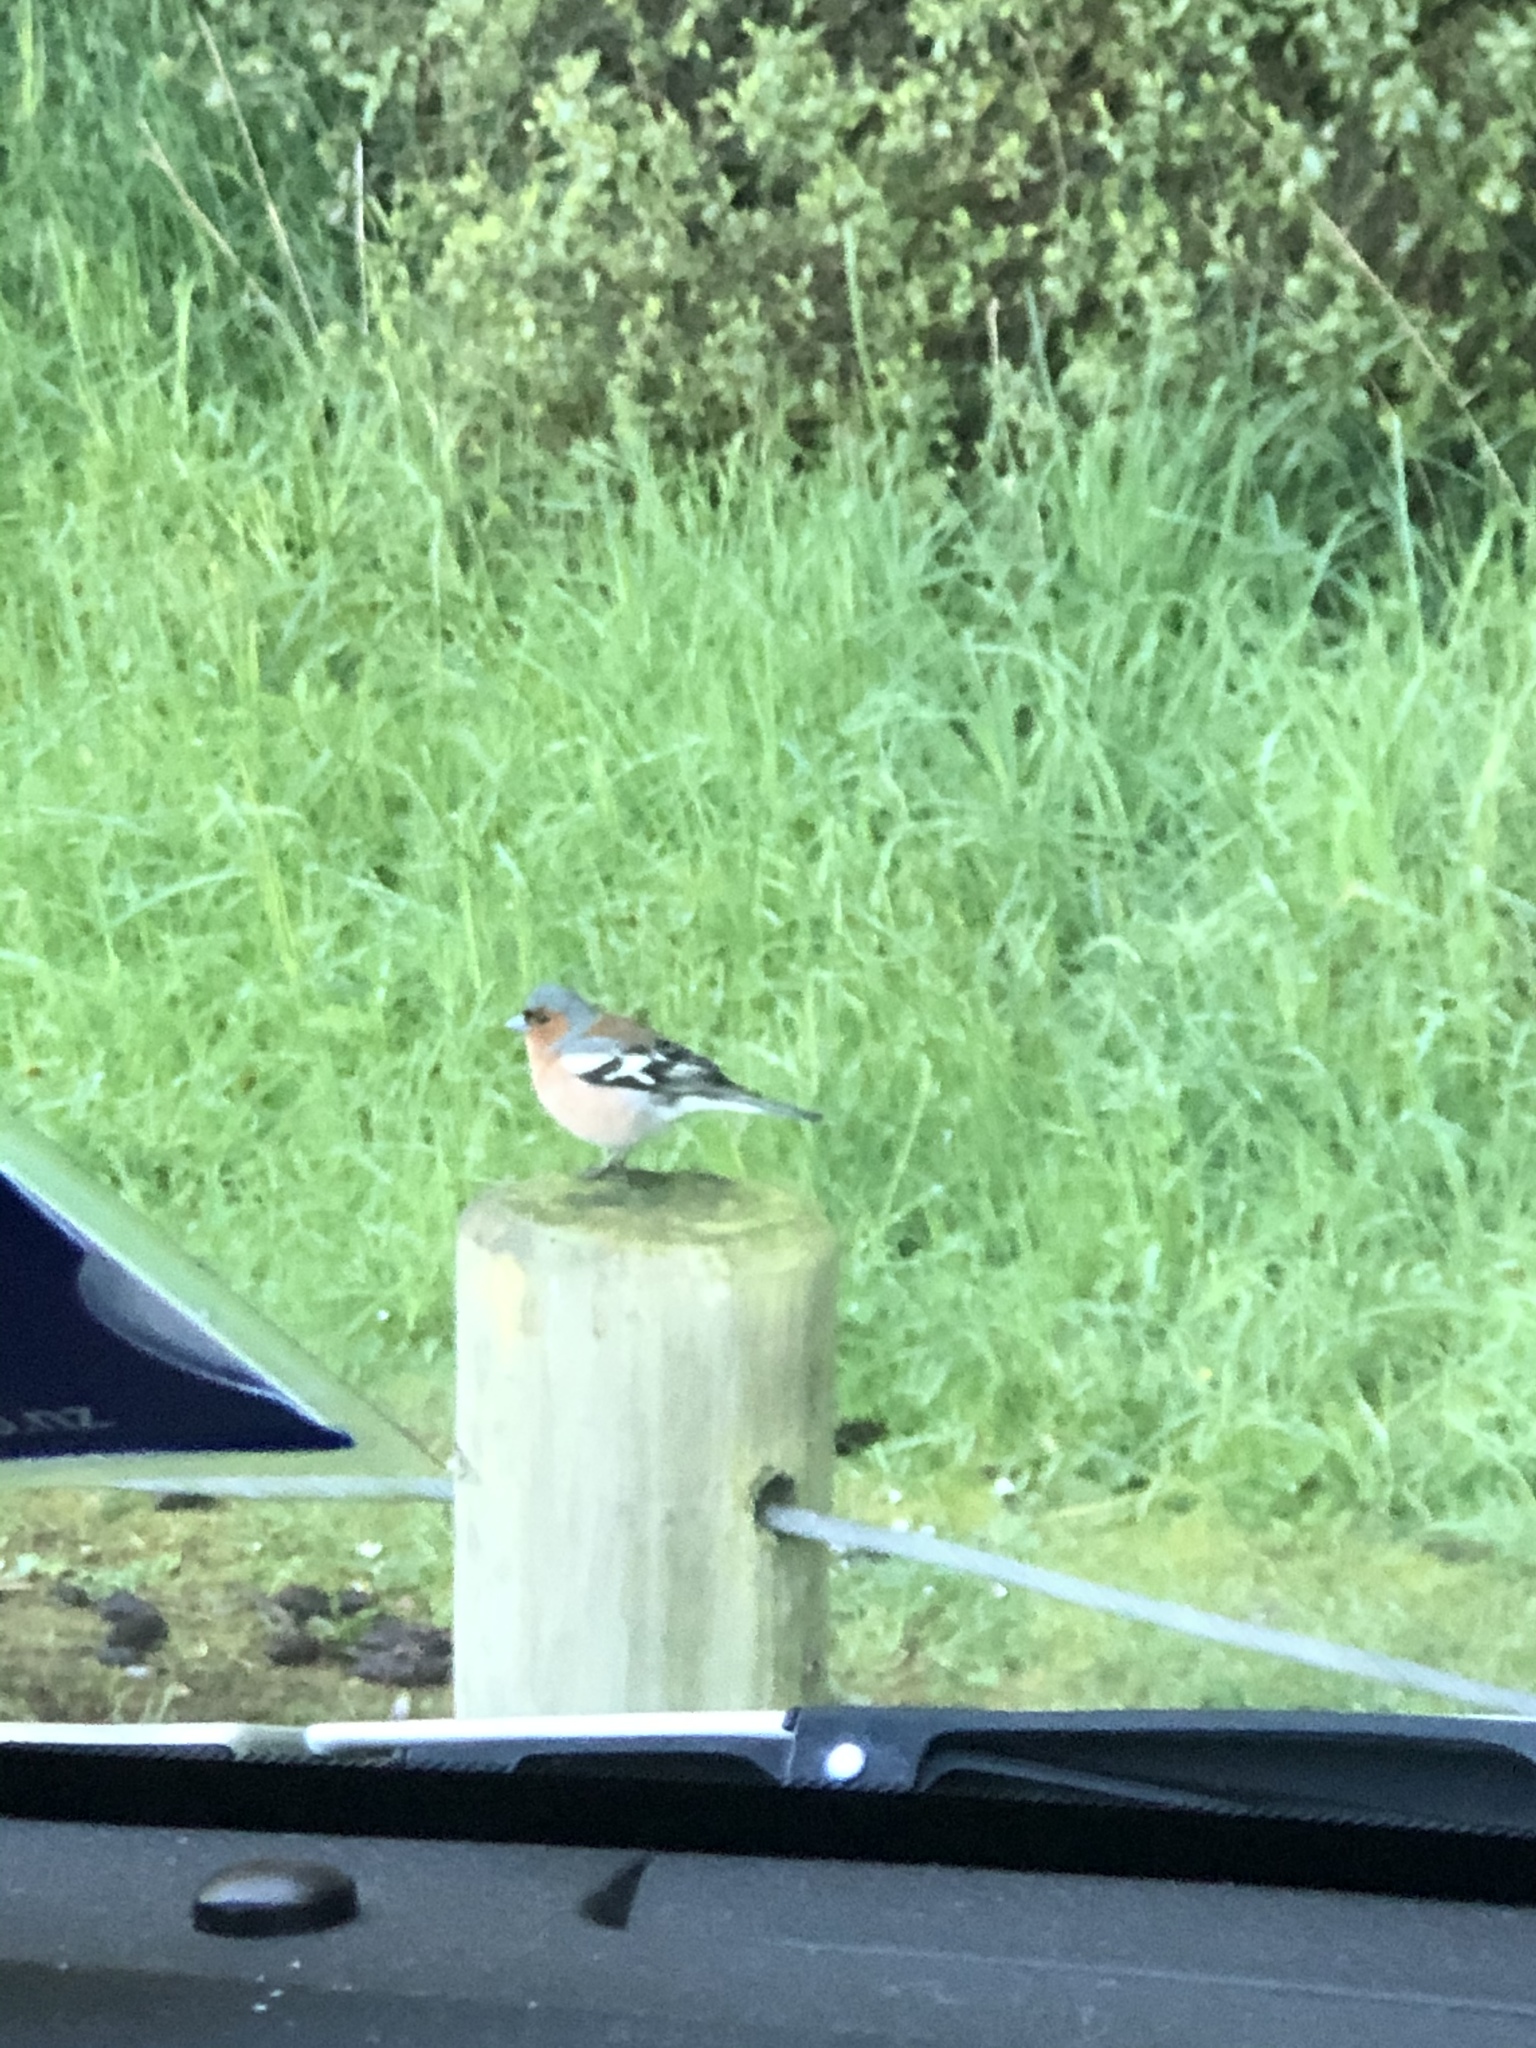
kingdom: Animalia
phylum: Chordata
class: Aves
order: Passeriformes
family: Fringillidae
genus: Fringilla
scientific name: Fringilla coelebs
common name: Common chaffinch
